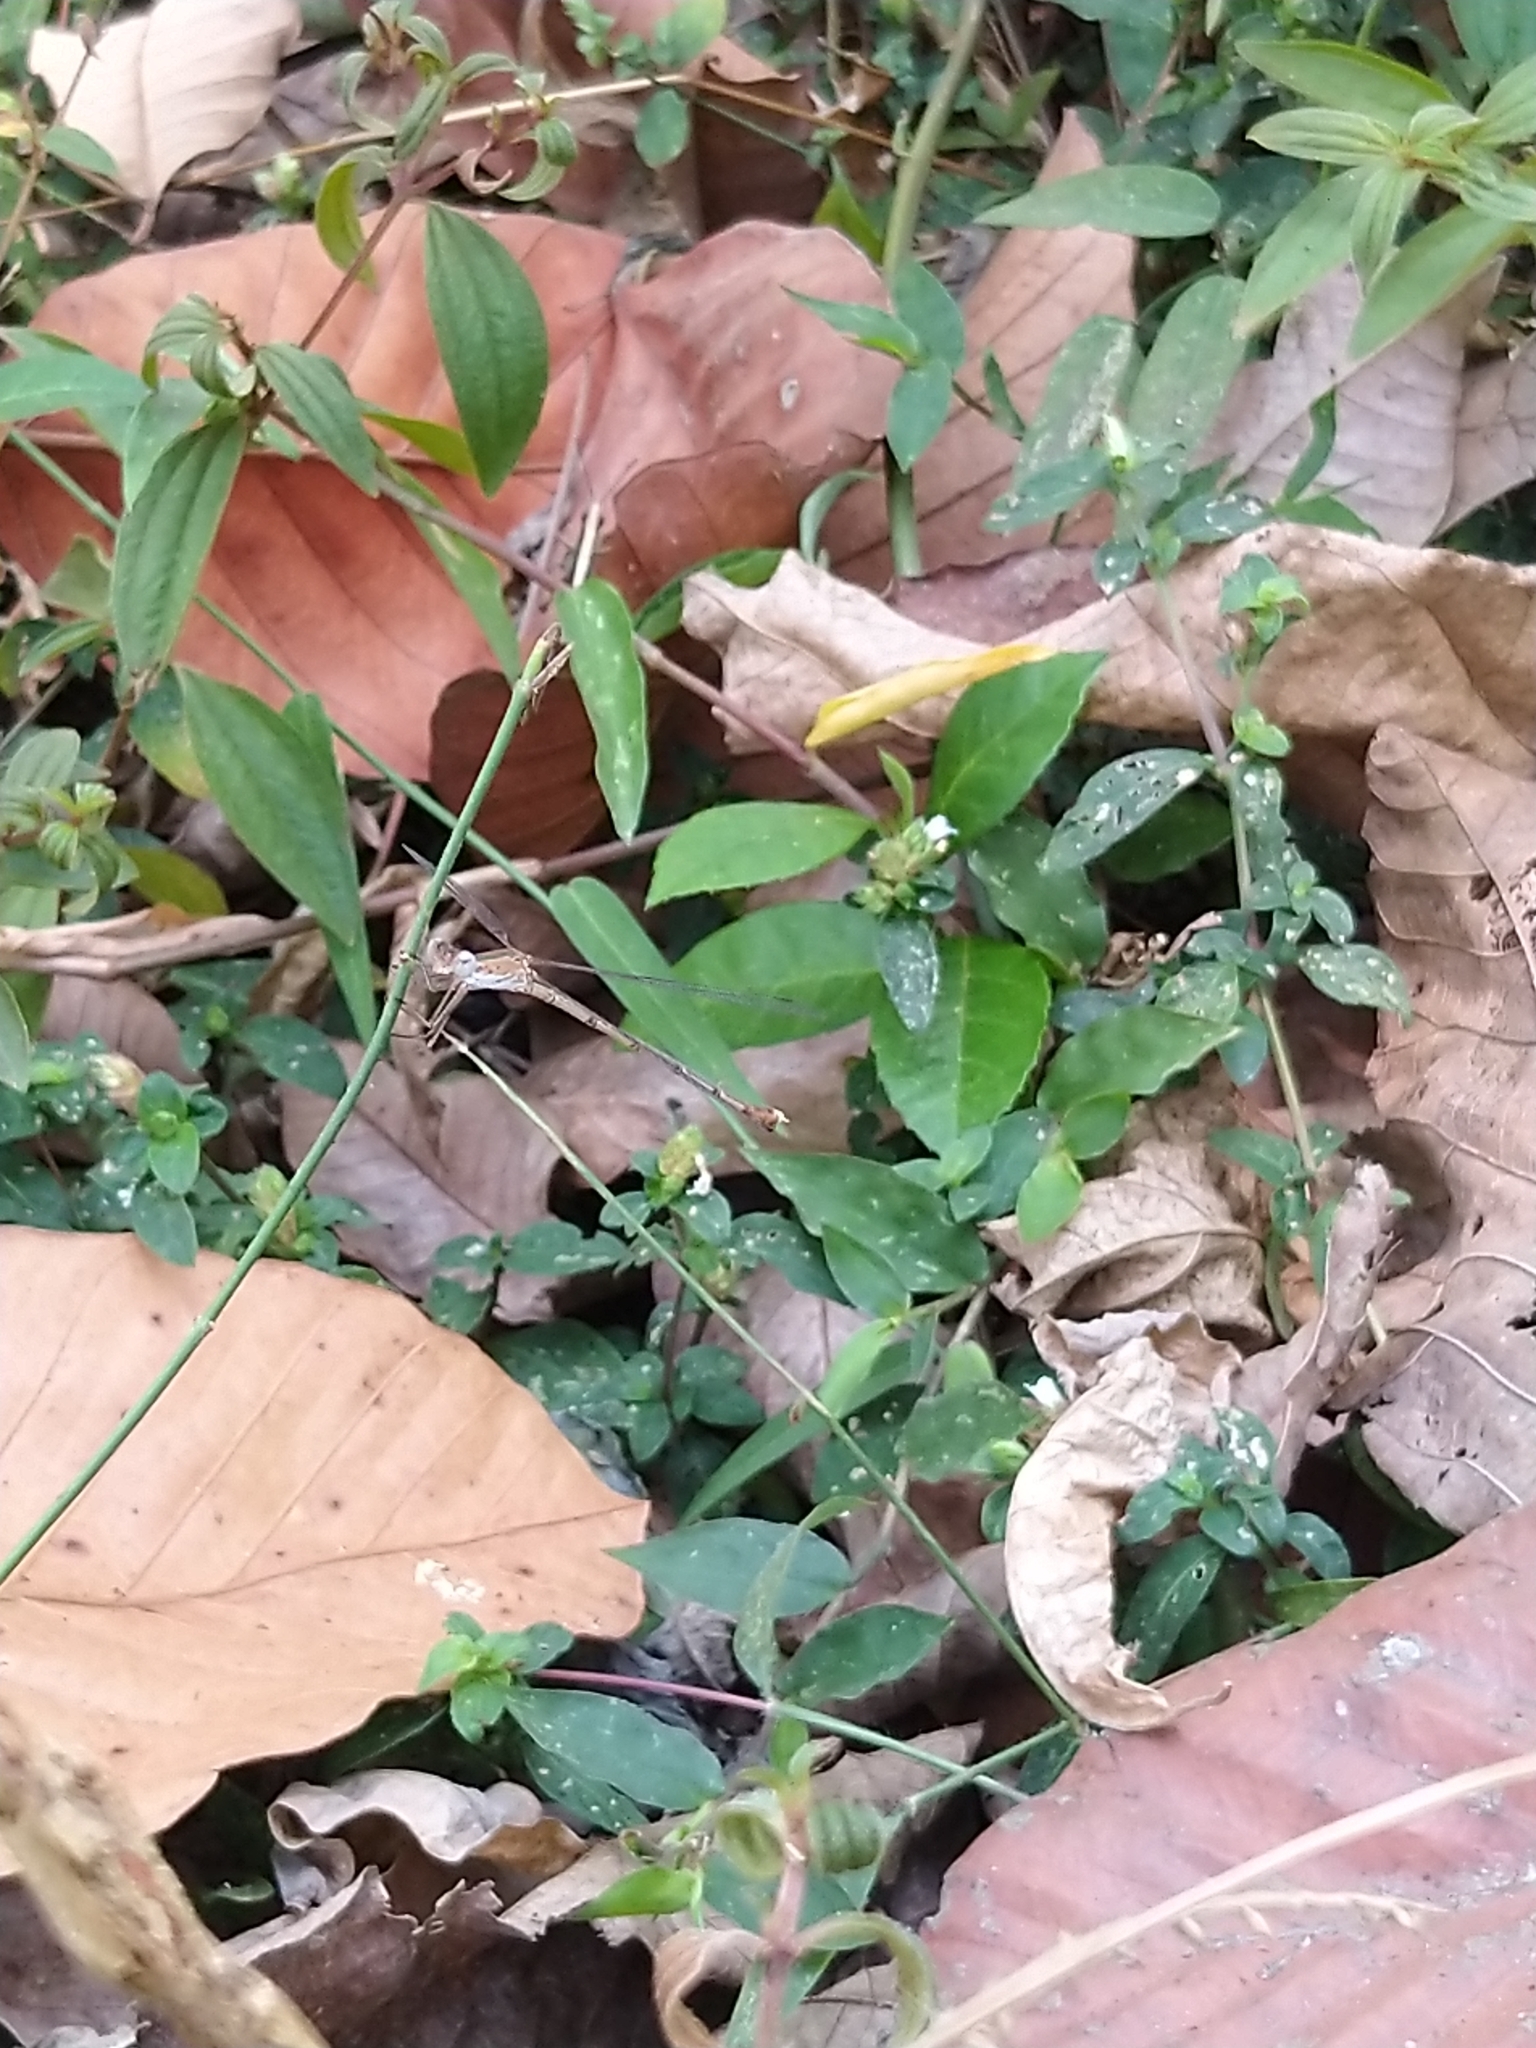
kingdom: Animalia
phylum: Arthropoda
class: Insecta
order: Odonata
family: Lestidae
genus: Lestes
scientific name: Lestes elatus
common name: Emerald spreadwing
